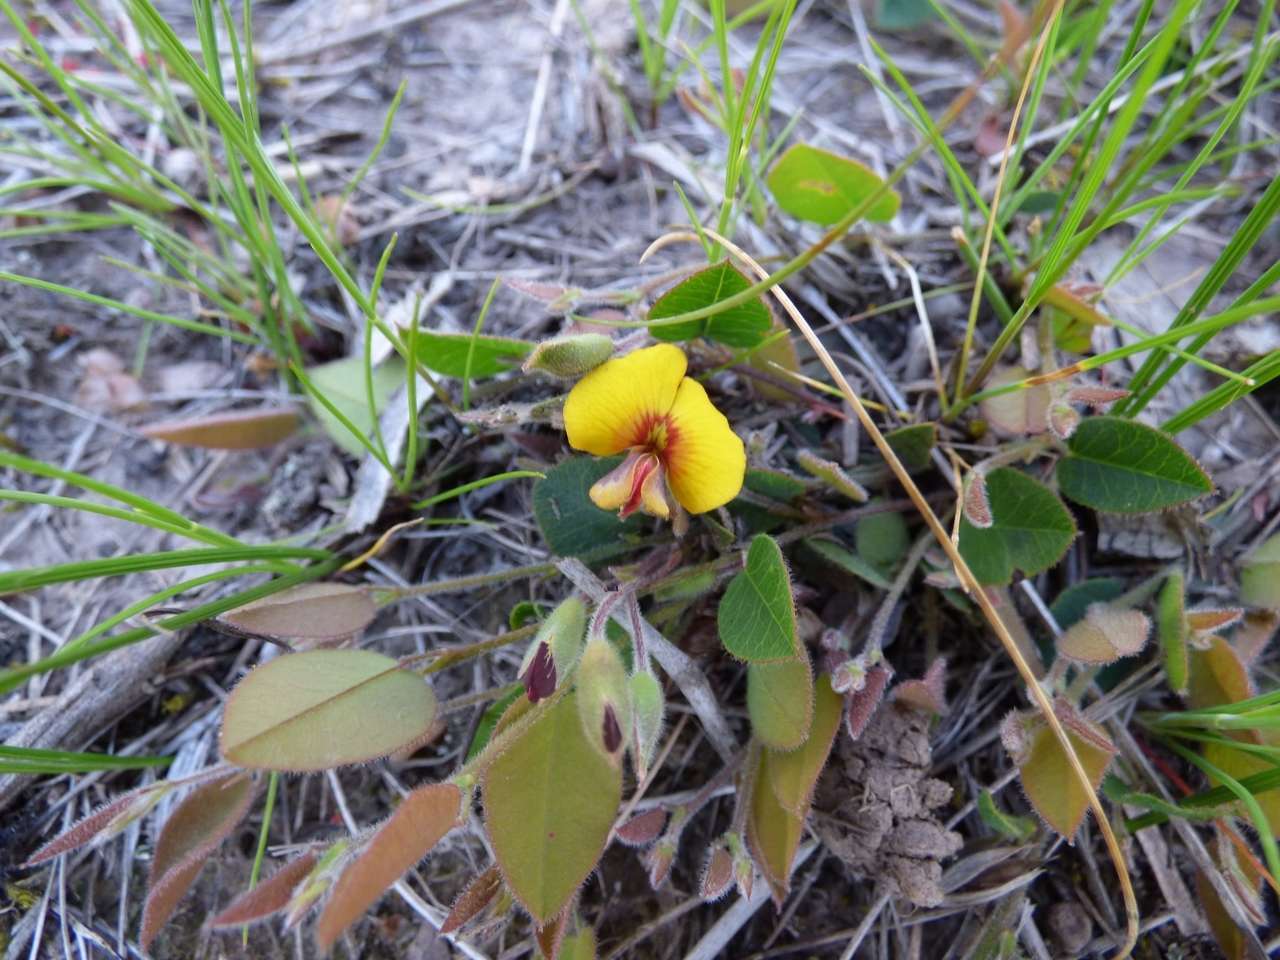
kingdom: Plantae
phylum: Tracheophyta
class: Magnoliopsida
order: Fabales
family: Fabaceae
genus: Bossiaea
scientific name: Bossiaea prostrata
